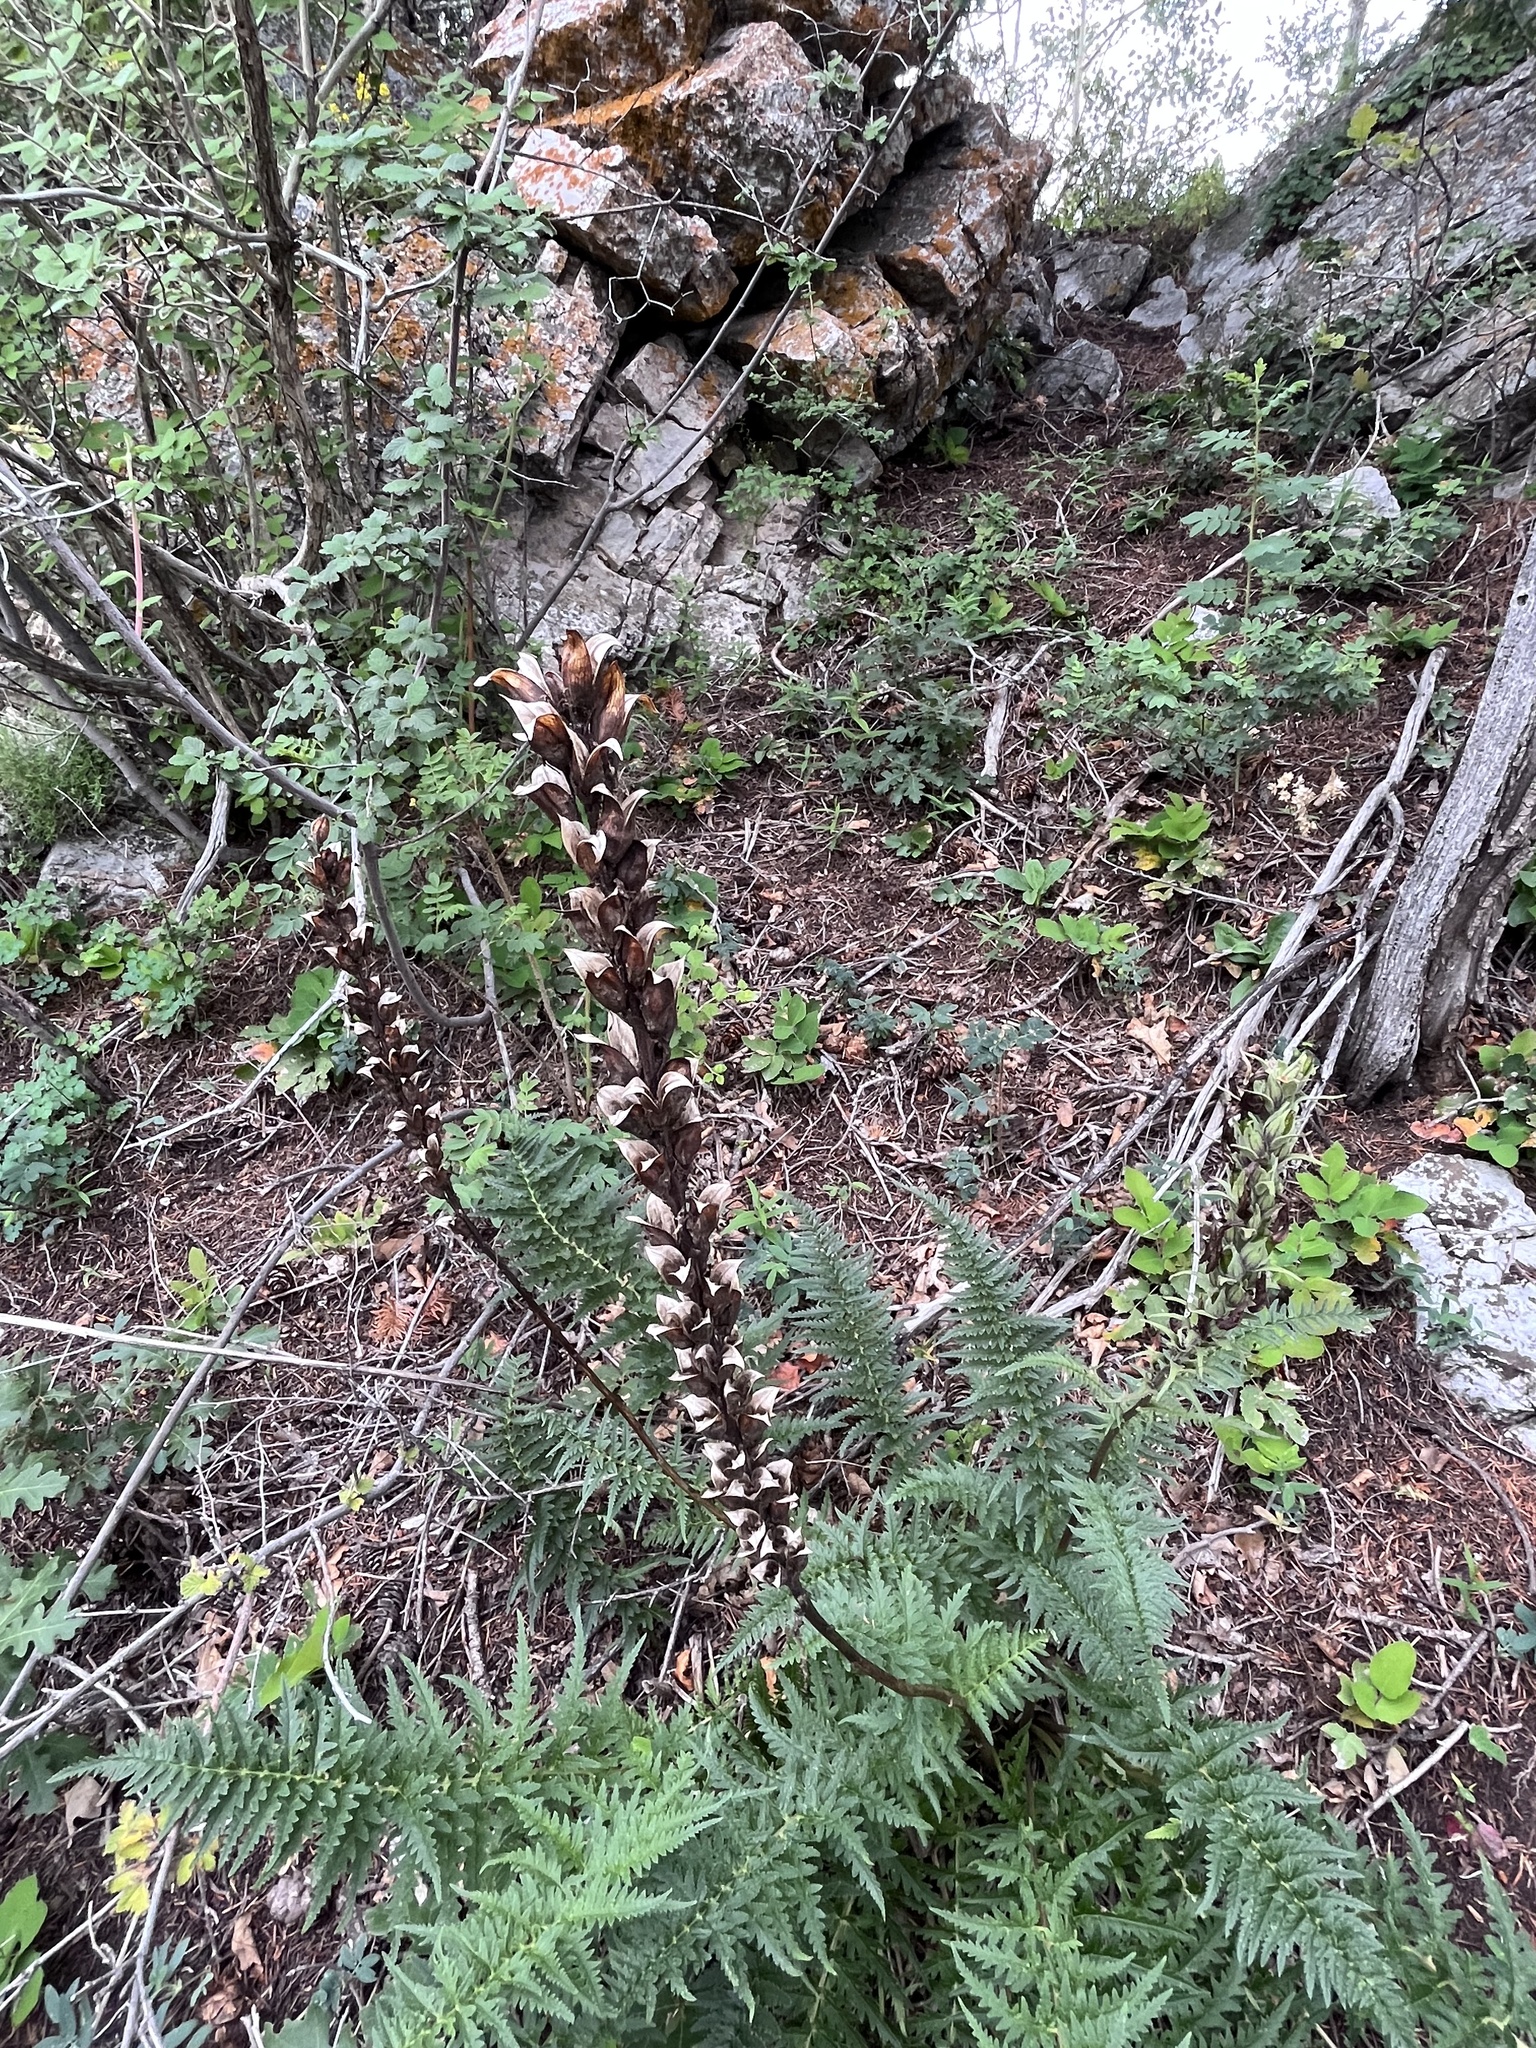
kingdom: Plantae
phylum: Tracheophyta
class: Magnoliopsida
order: Lamiales
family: Orobanchaceae
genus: Pedicularis
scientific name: Pedicularis procera
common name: Gray's lousewort
